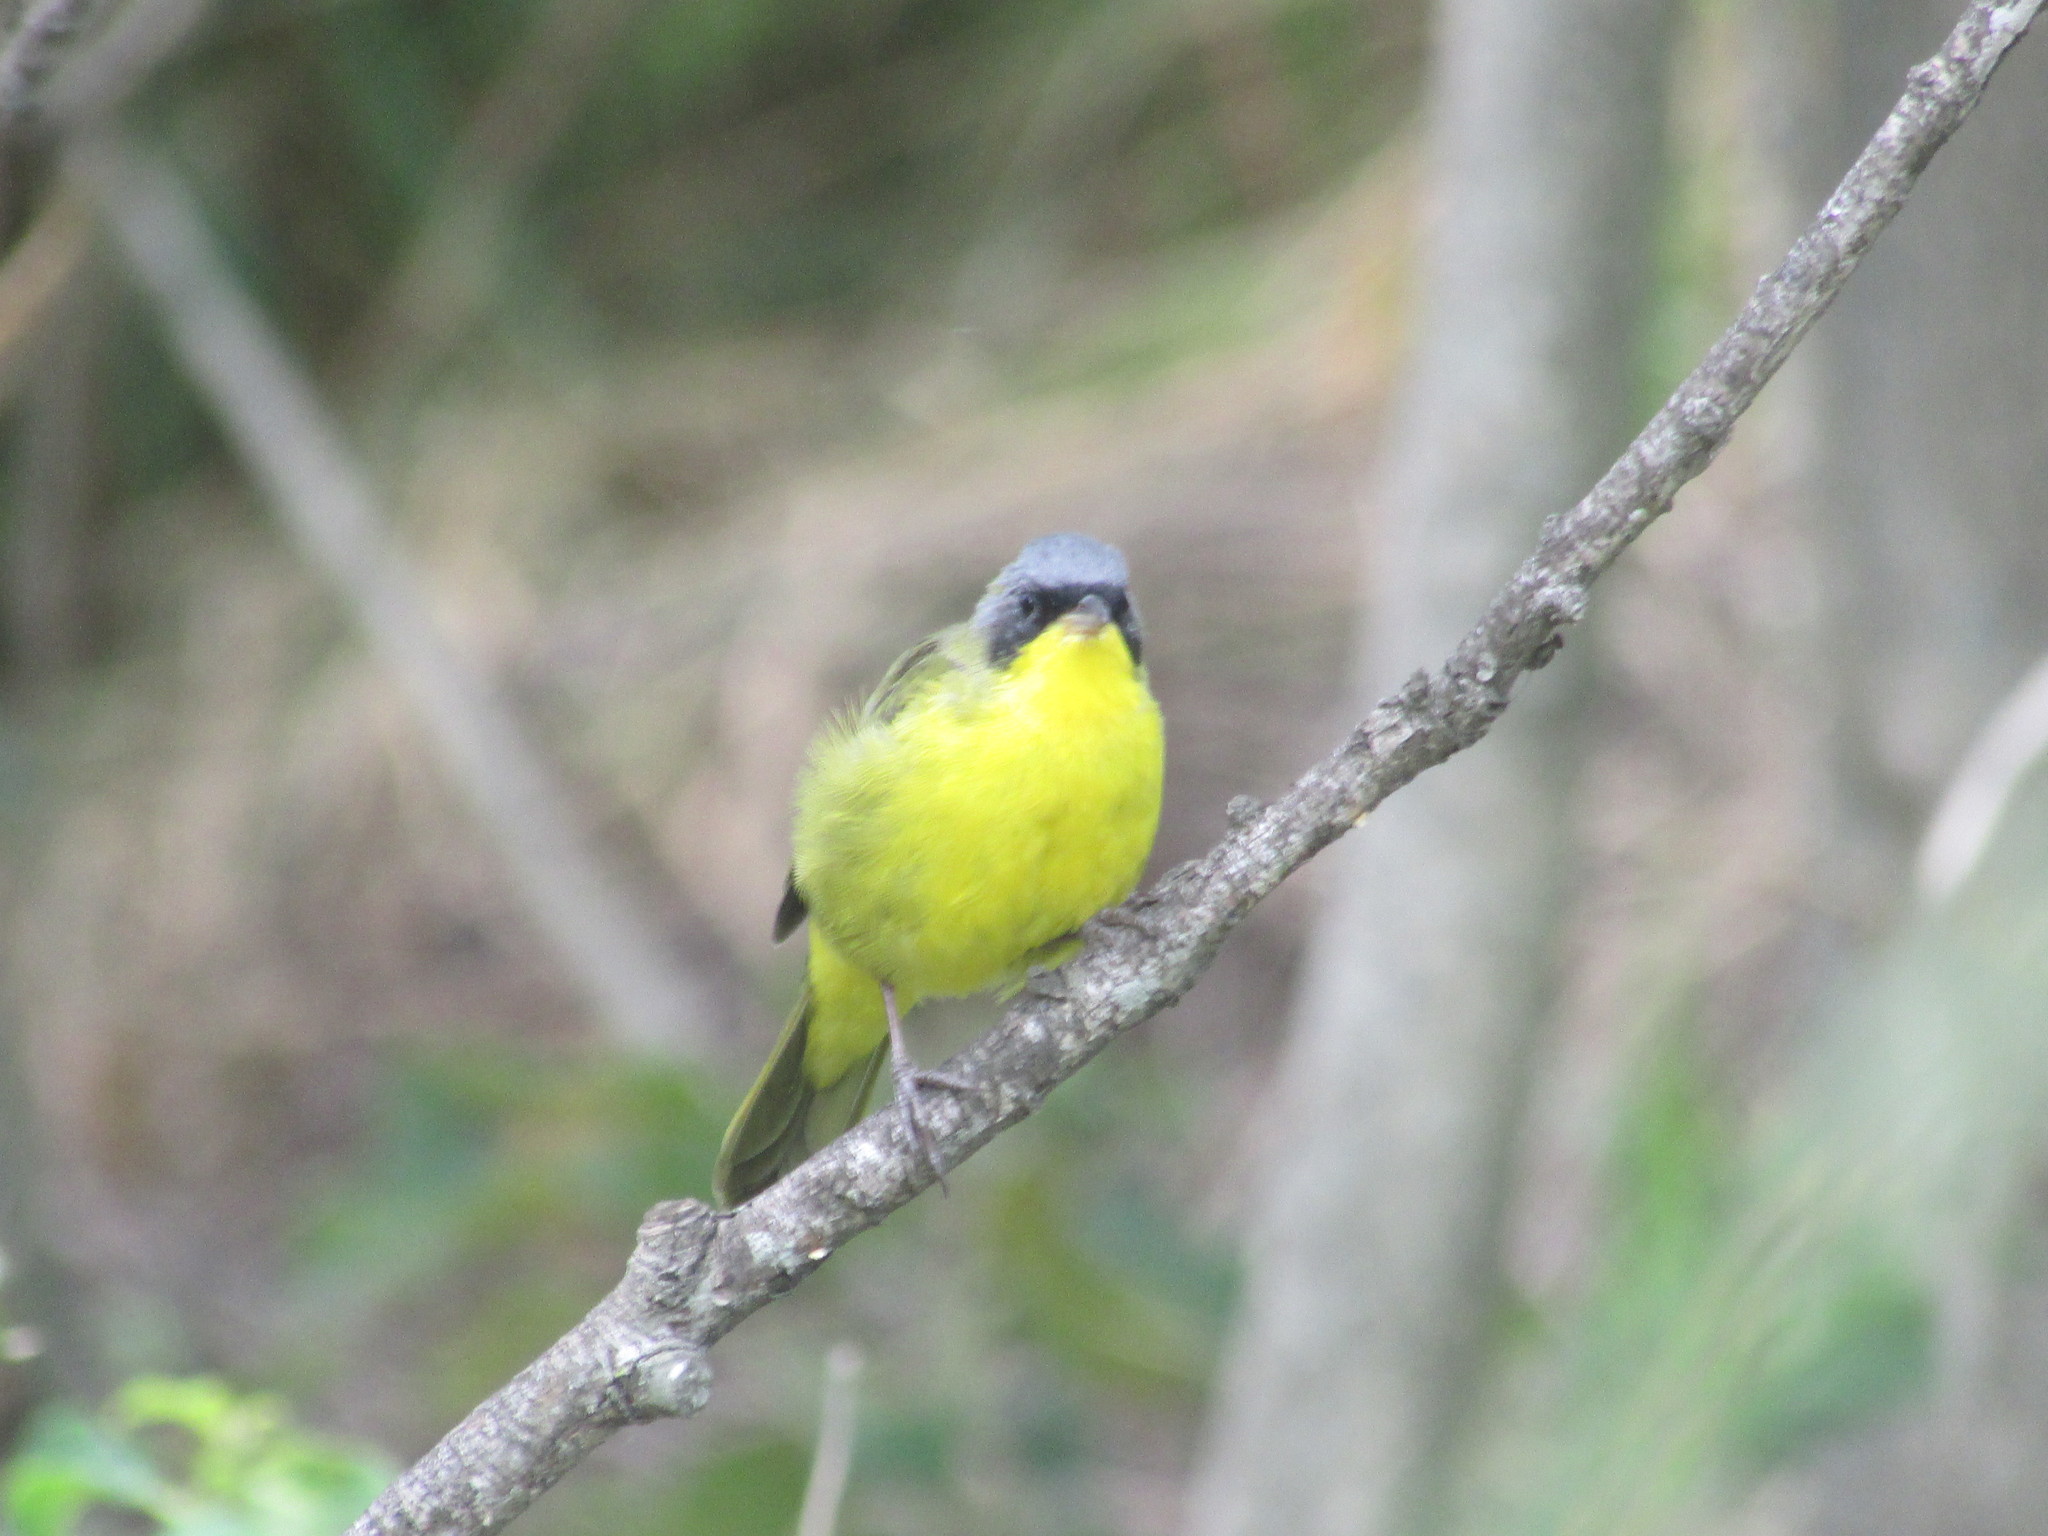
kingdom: Animalia
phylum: Chordata
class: Aves
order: Passeriformes
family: Parulidae
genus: Geothlypis
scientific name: Geothlypis velata
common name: Southern yellowthroat
